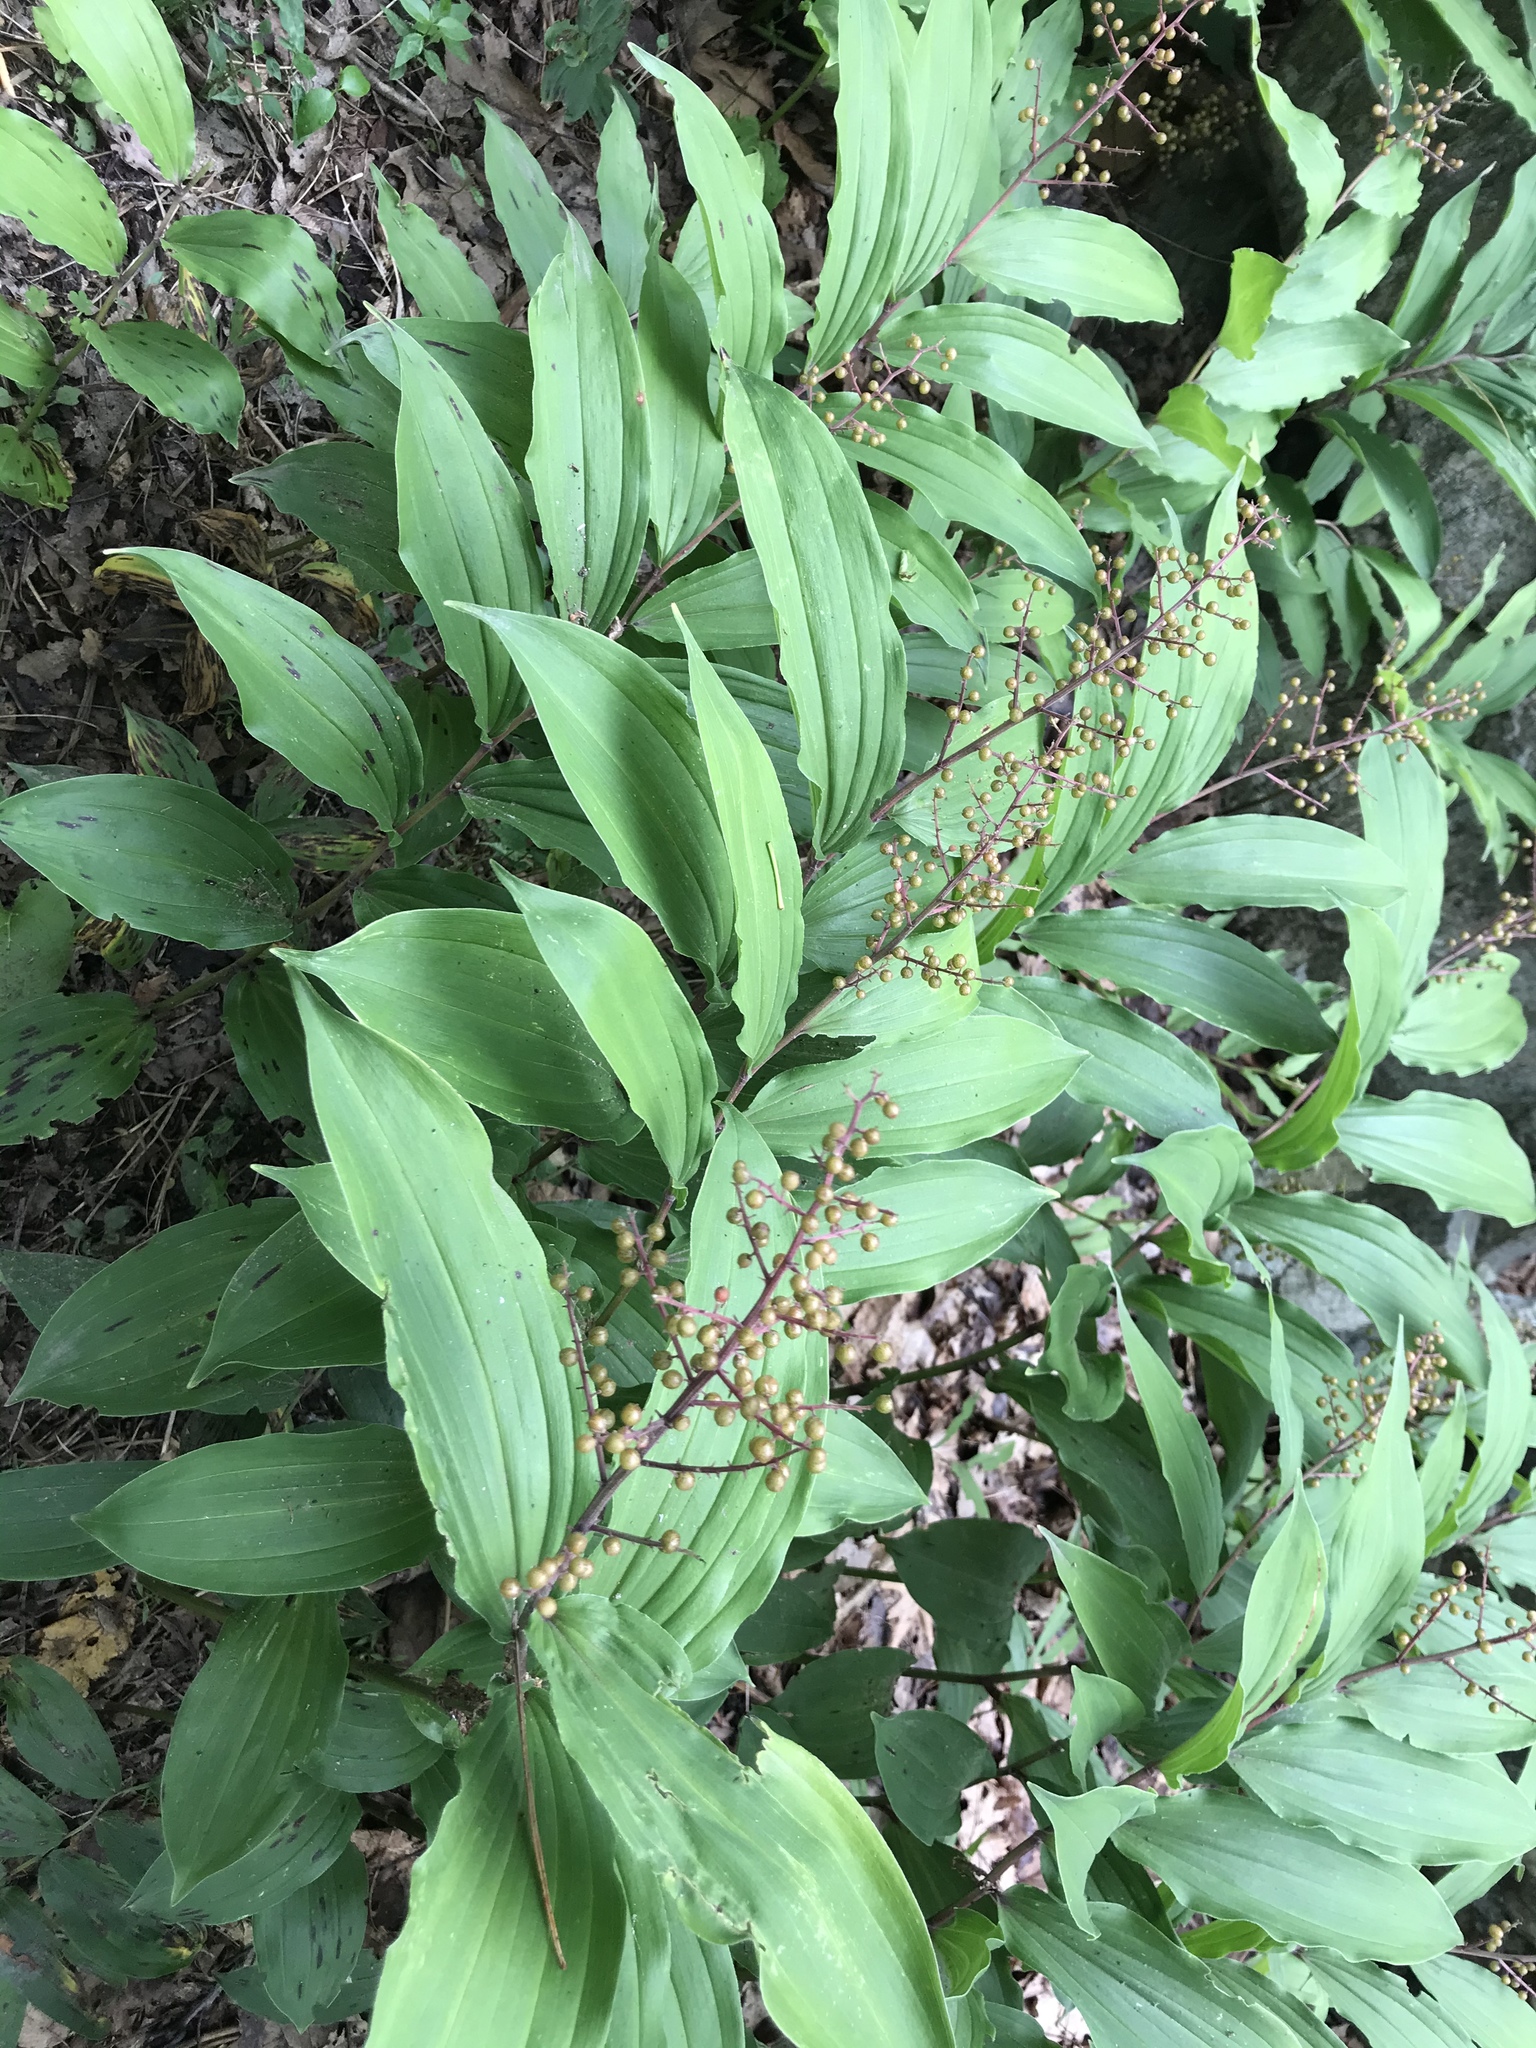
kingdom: Plantae
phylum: Tracheophyta
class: Liliopsida
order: Asparagales
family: Asparagaceae
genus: Maianthemum
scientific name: Maianthemum racemosum
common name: False spikenard
